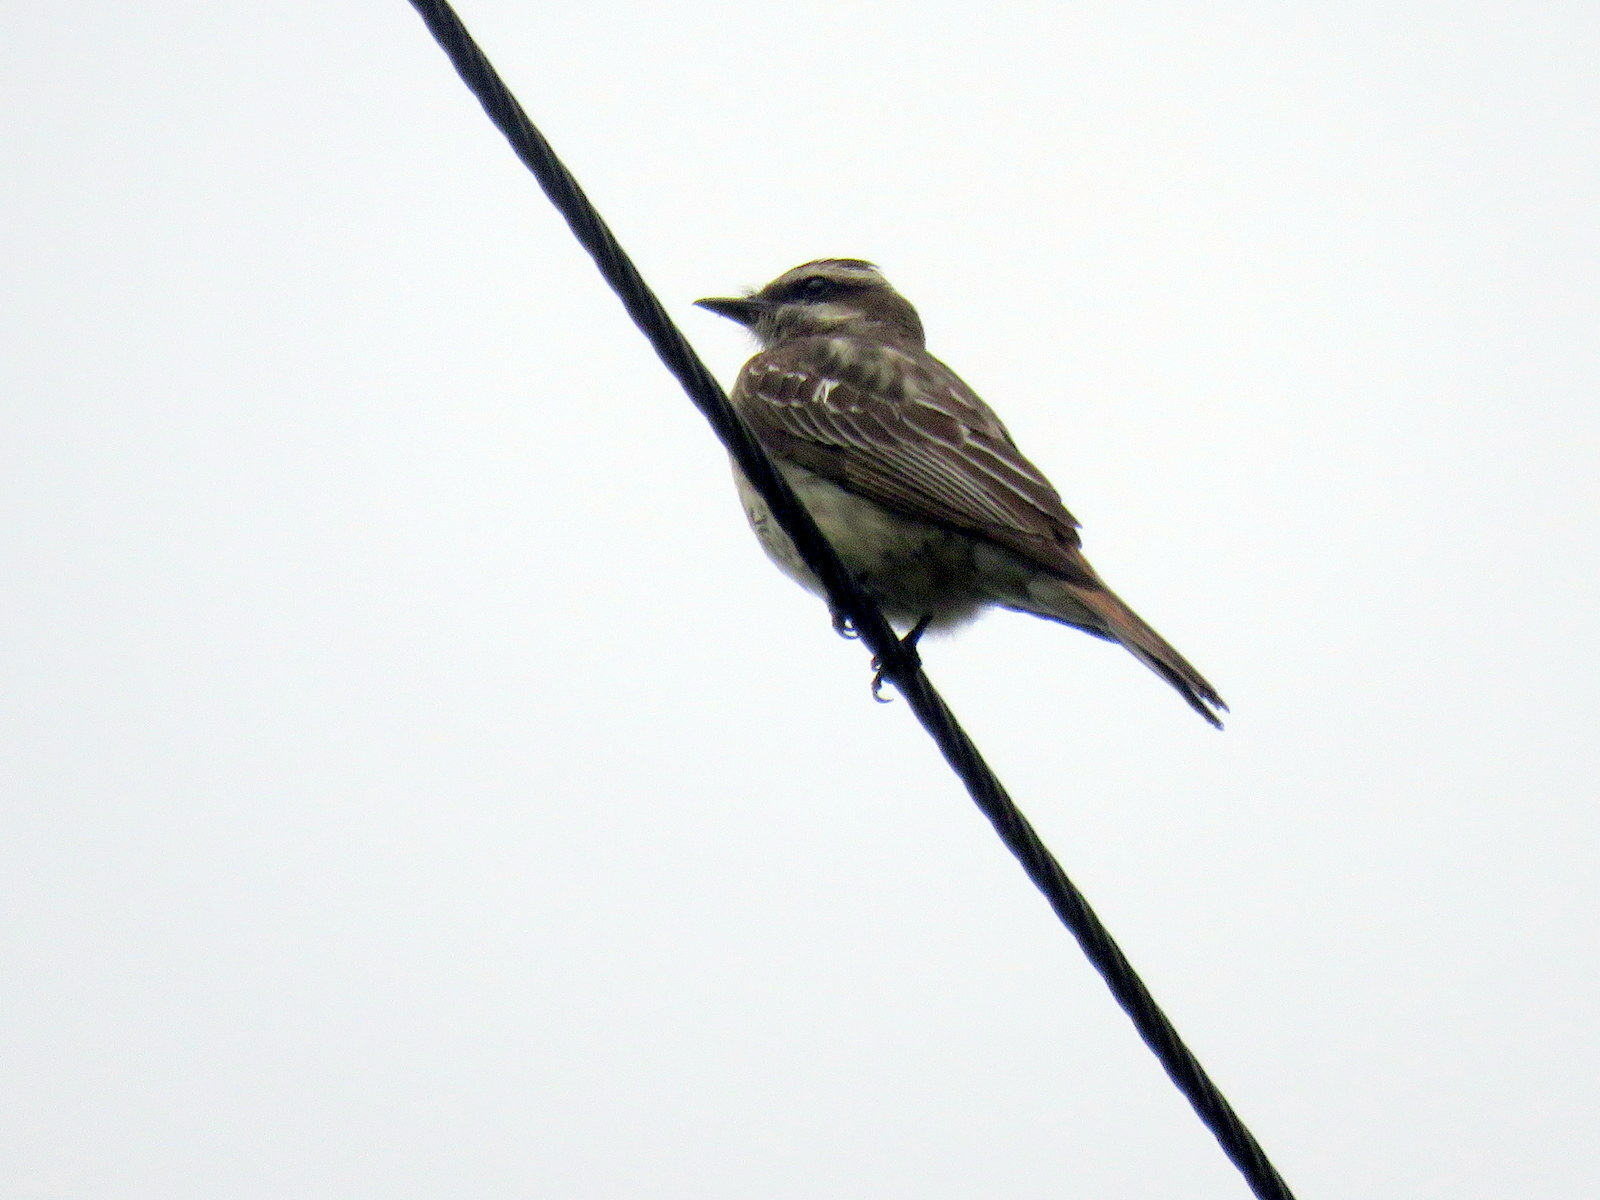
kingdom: Animalia
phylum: Chordata
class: Aves
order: Passeriformes
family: Tyrannidae
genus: Empidonomus
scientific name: Empidonomus varius
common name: Variegated flycatcher
